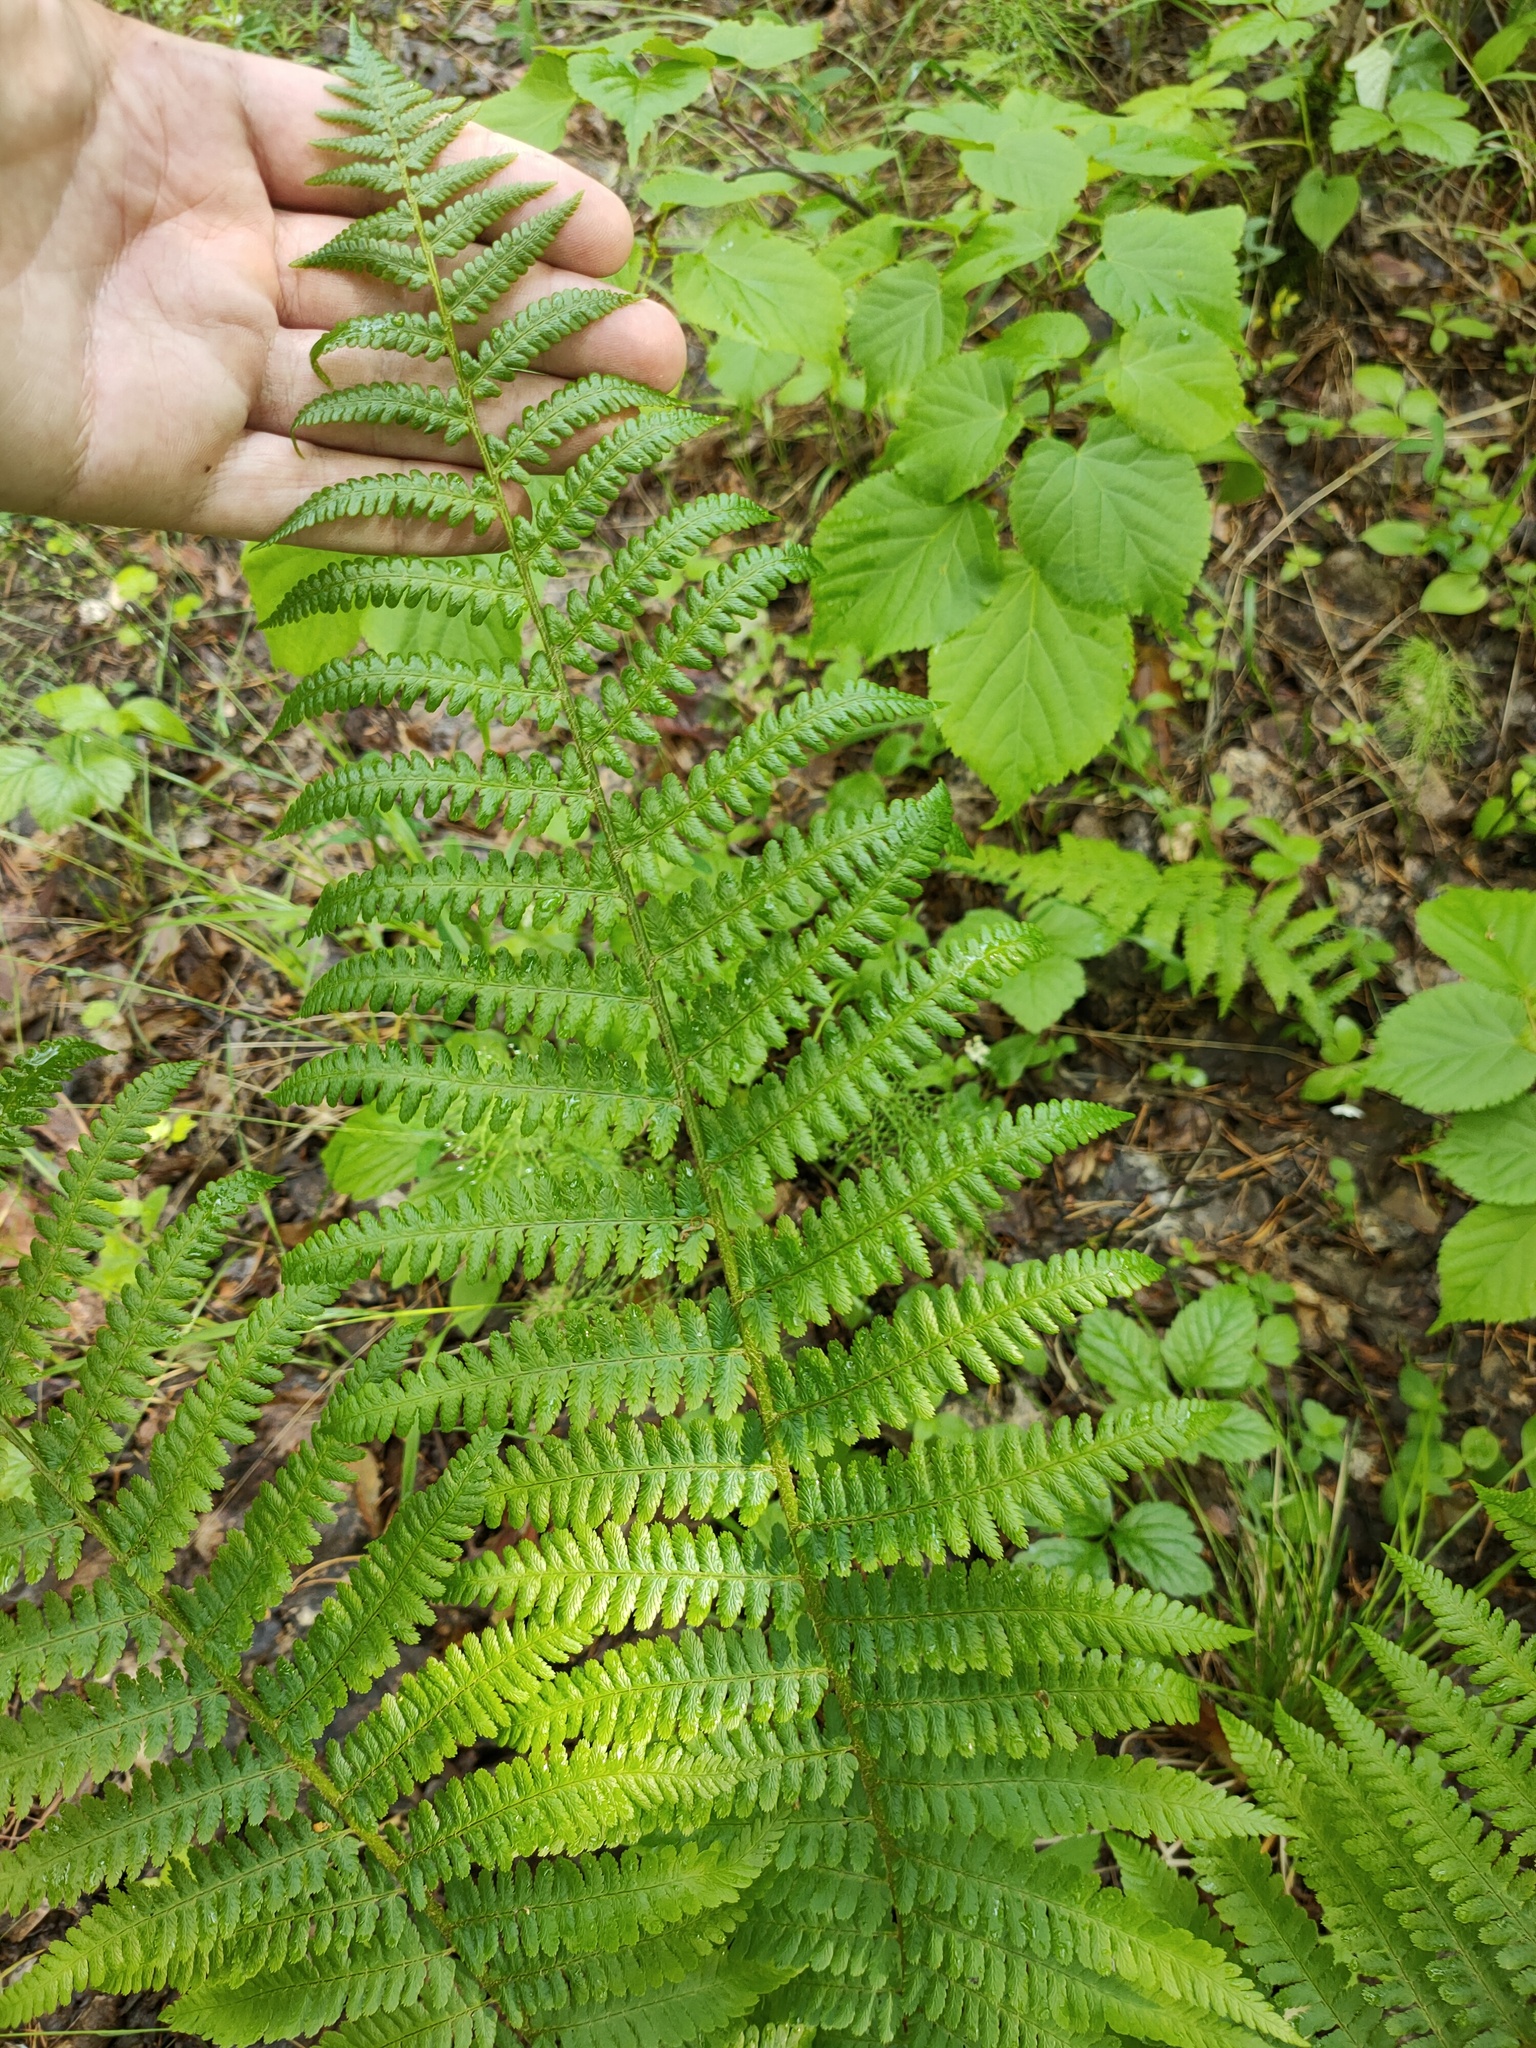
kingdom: Plantae
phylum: Tracheophyta
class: Polypodiopsida
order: Polypodiales
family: Athyriaceae
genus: Athyrium
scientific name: Athyrium filix-femina
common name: Lady fern
